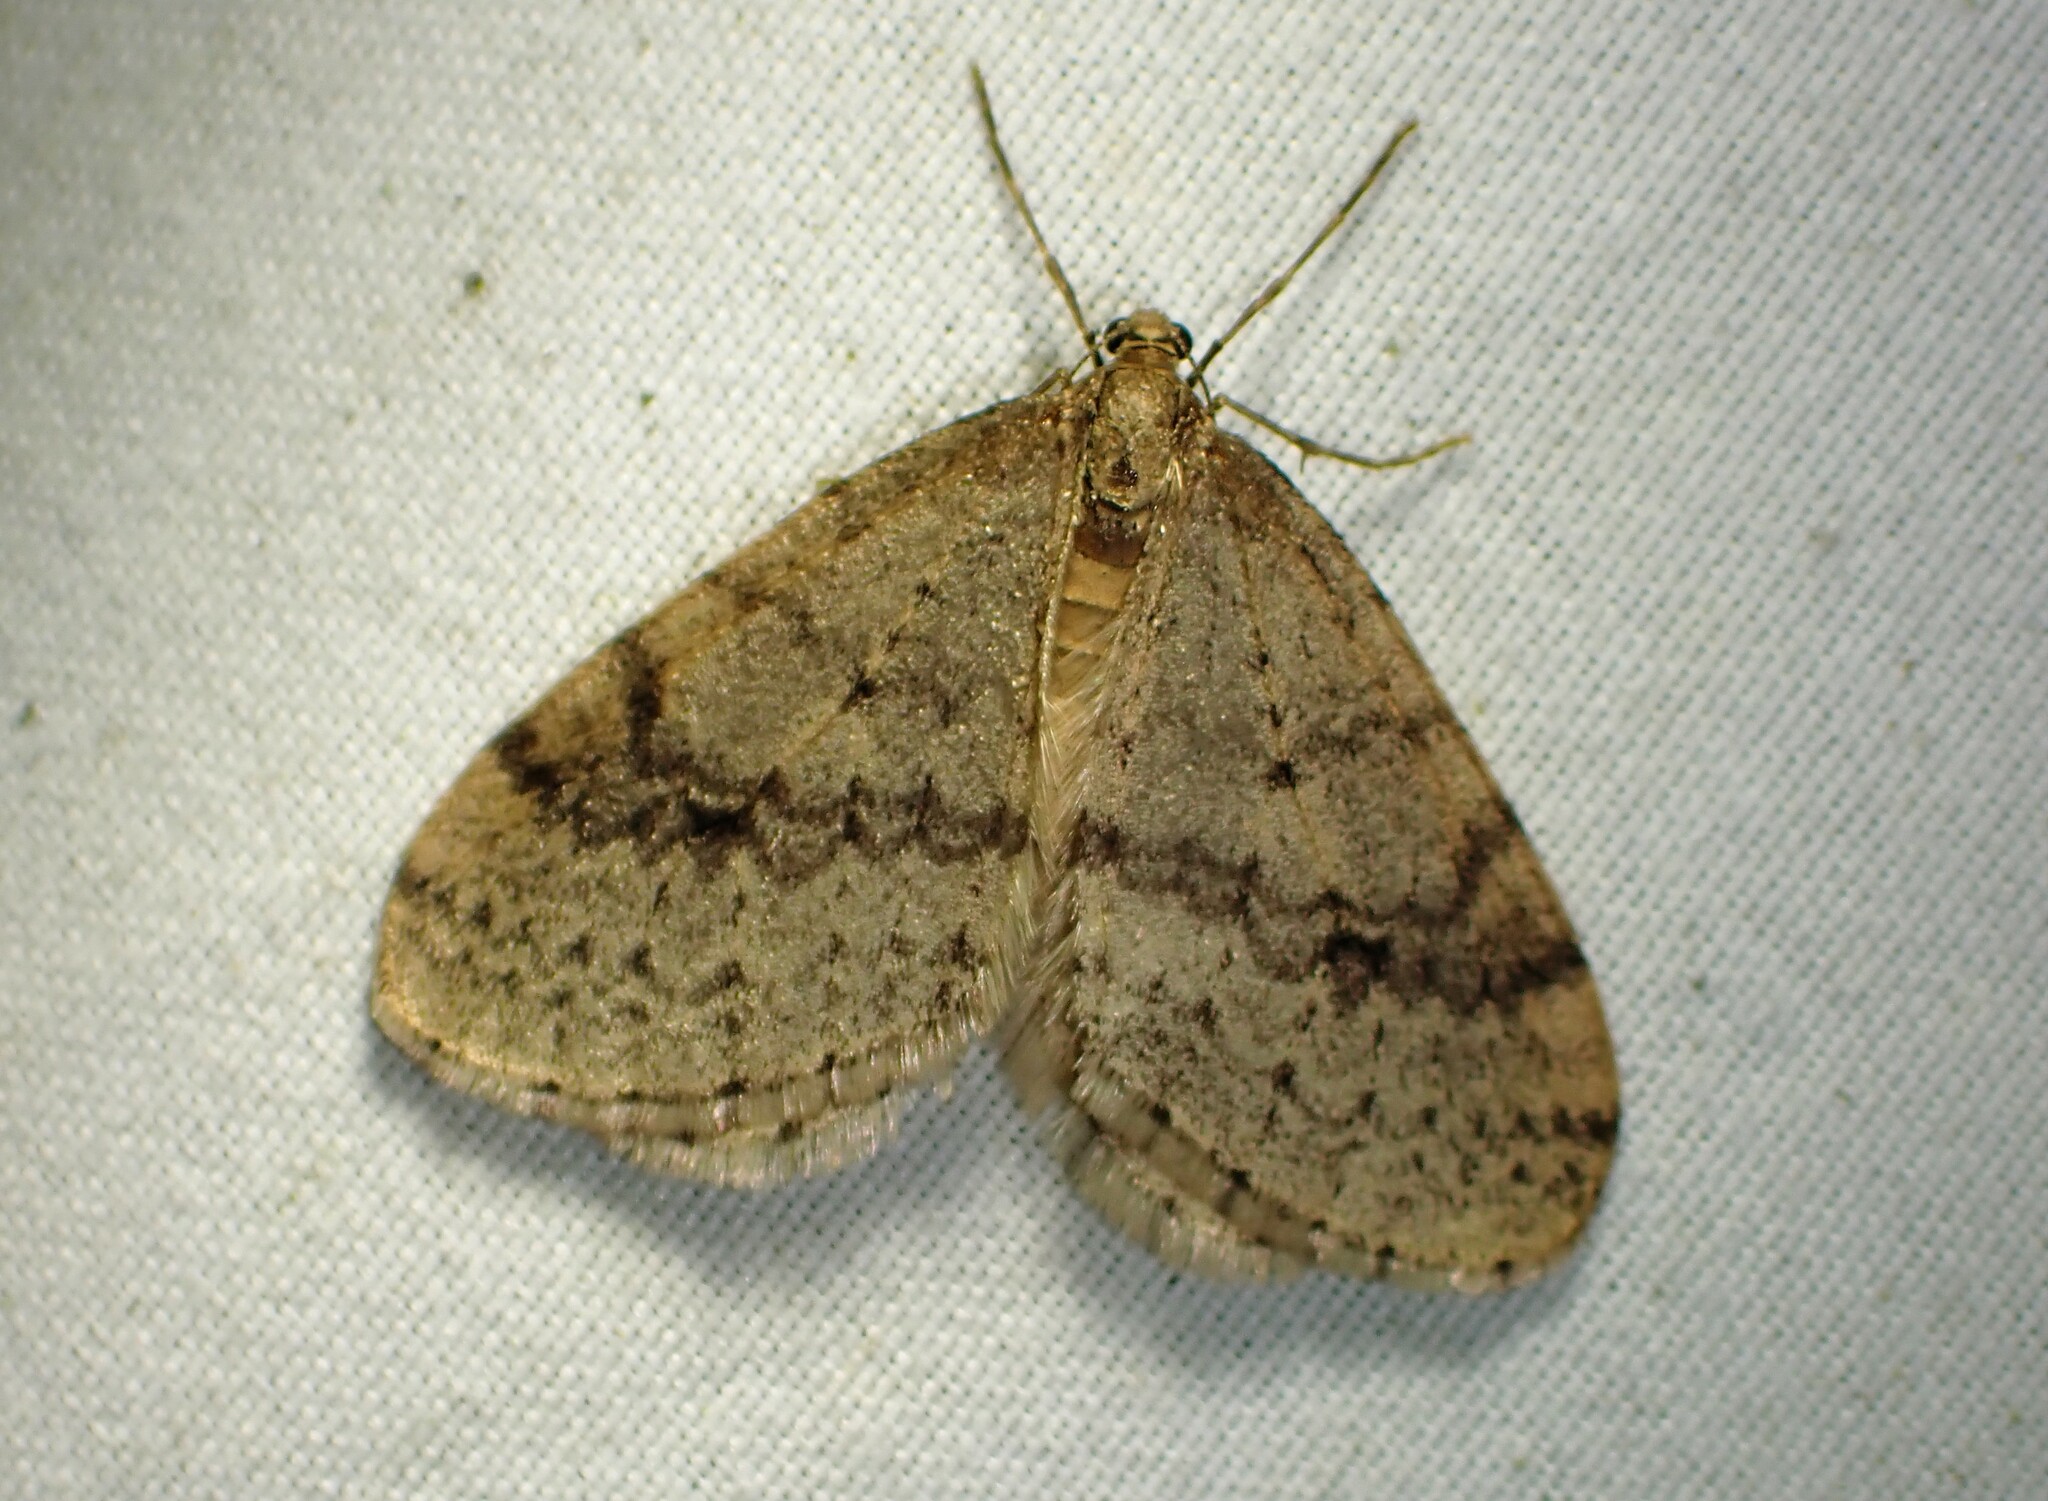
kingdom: Animalia
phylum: Arthropoda
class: Insecta
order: Lepidoptera
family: Geometridae
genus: Operophtera
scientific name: Operophtera bruceata
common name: Bruce spanworm
